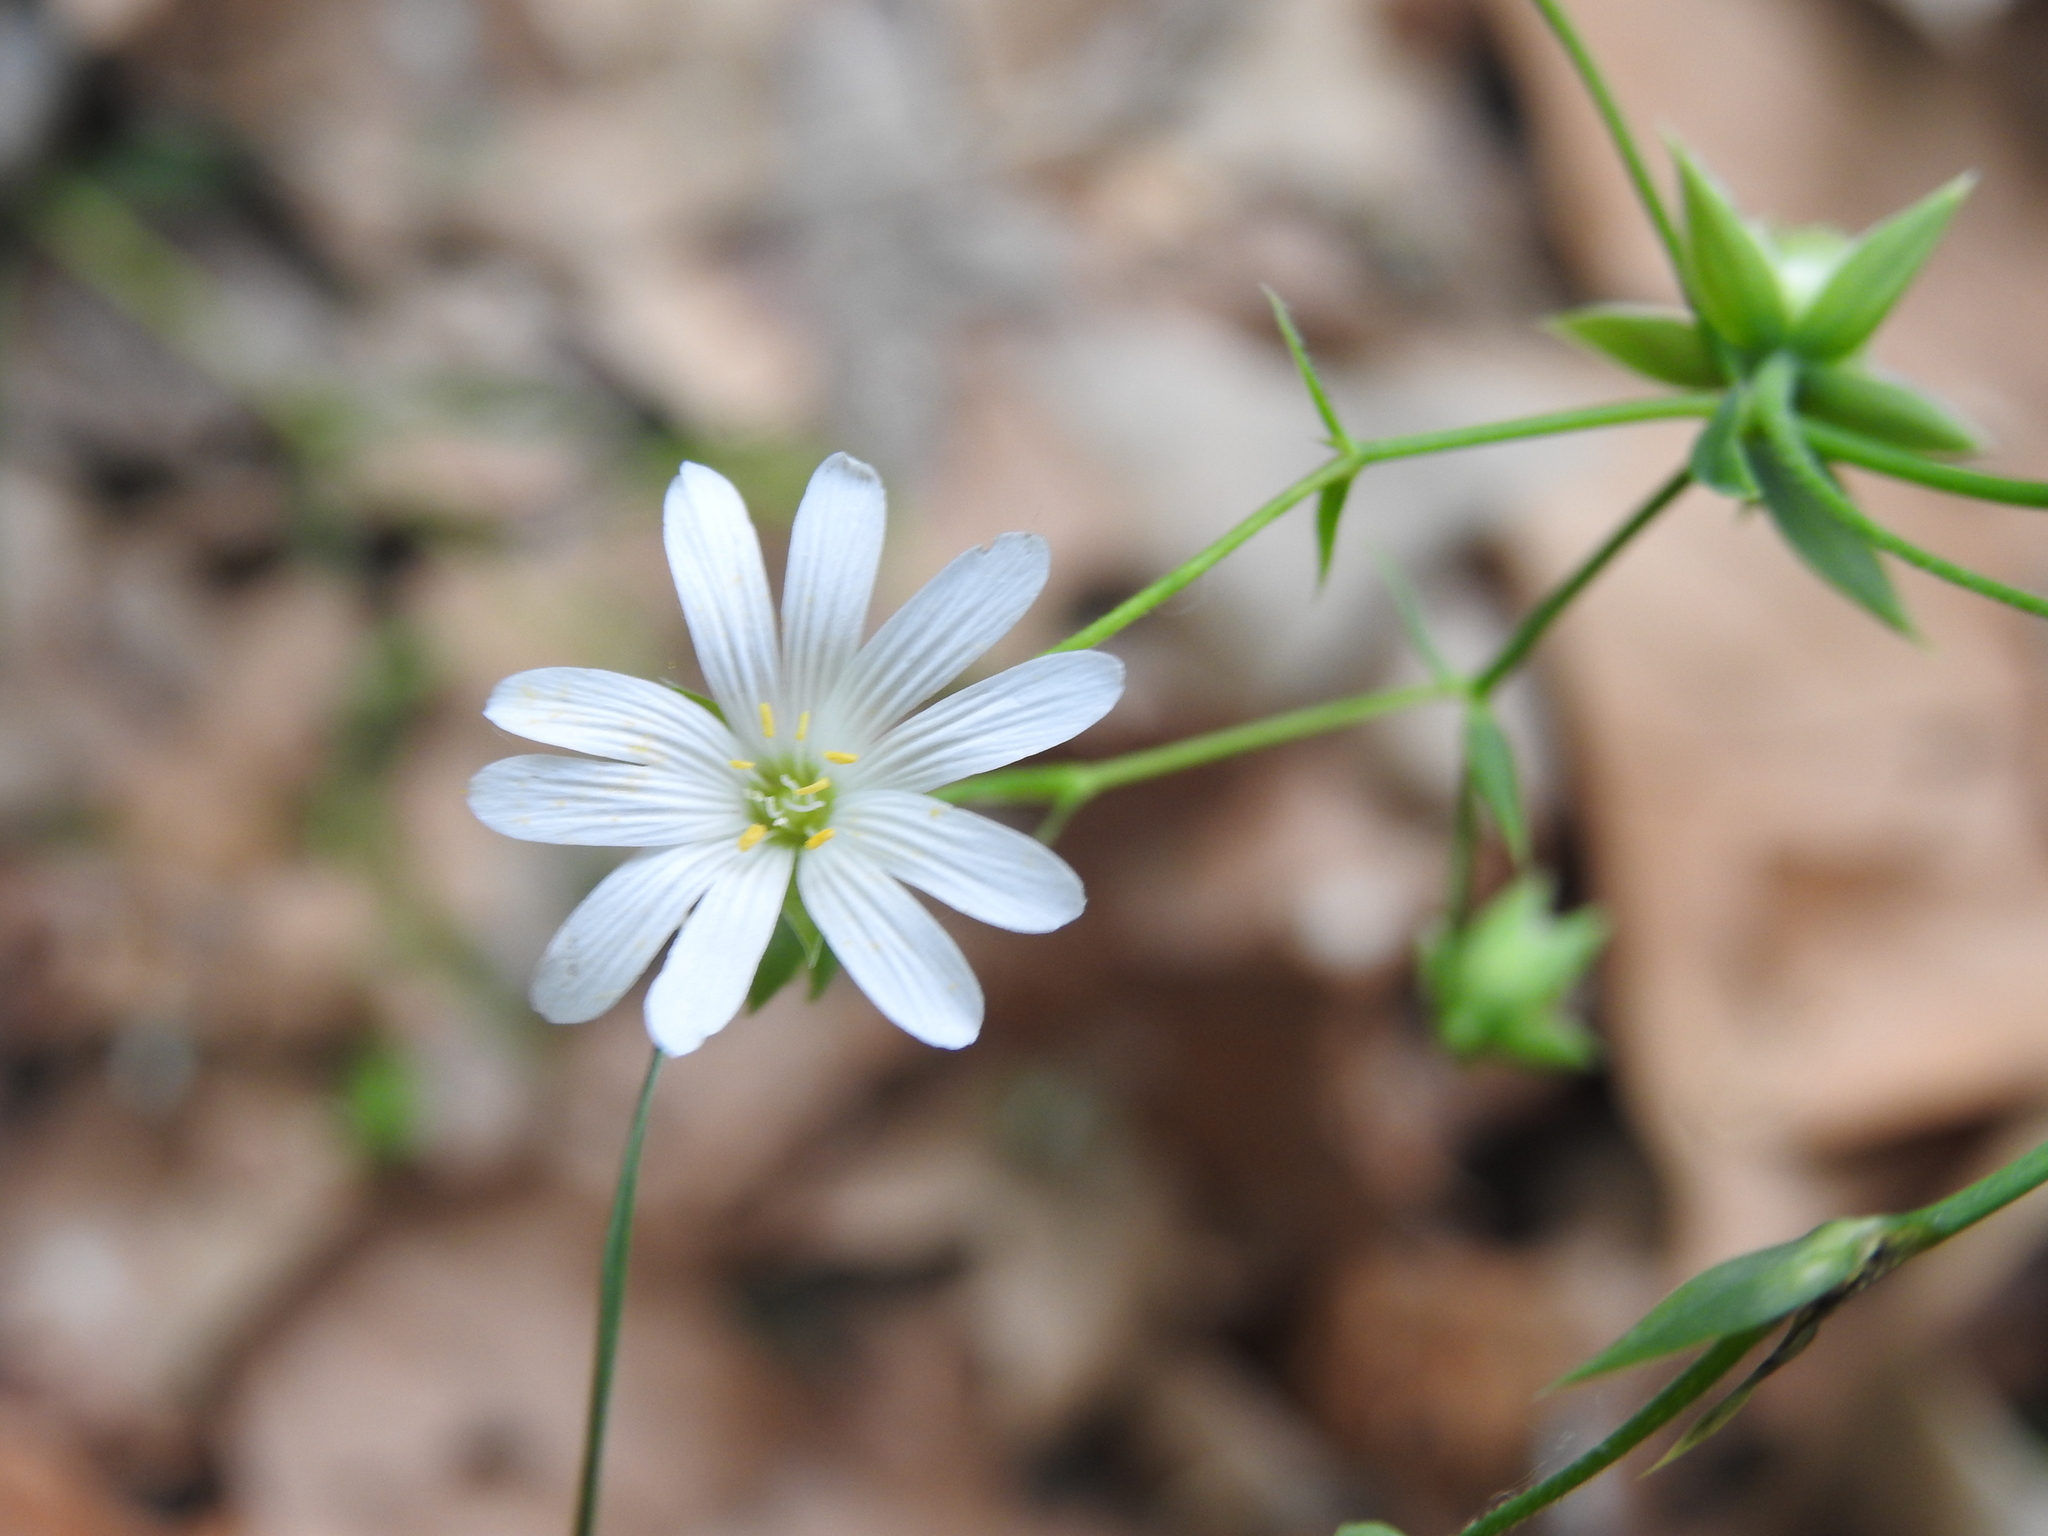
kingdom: Plantae
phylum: Tracheophyta
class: Magnoliopsida
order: Caryophyllales
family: Caryophyllaceae
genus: Rabelera
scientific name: Rabelera holostea
